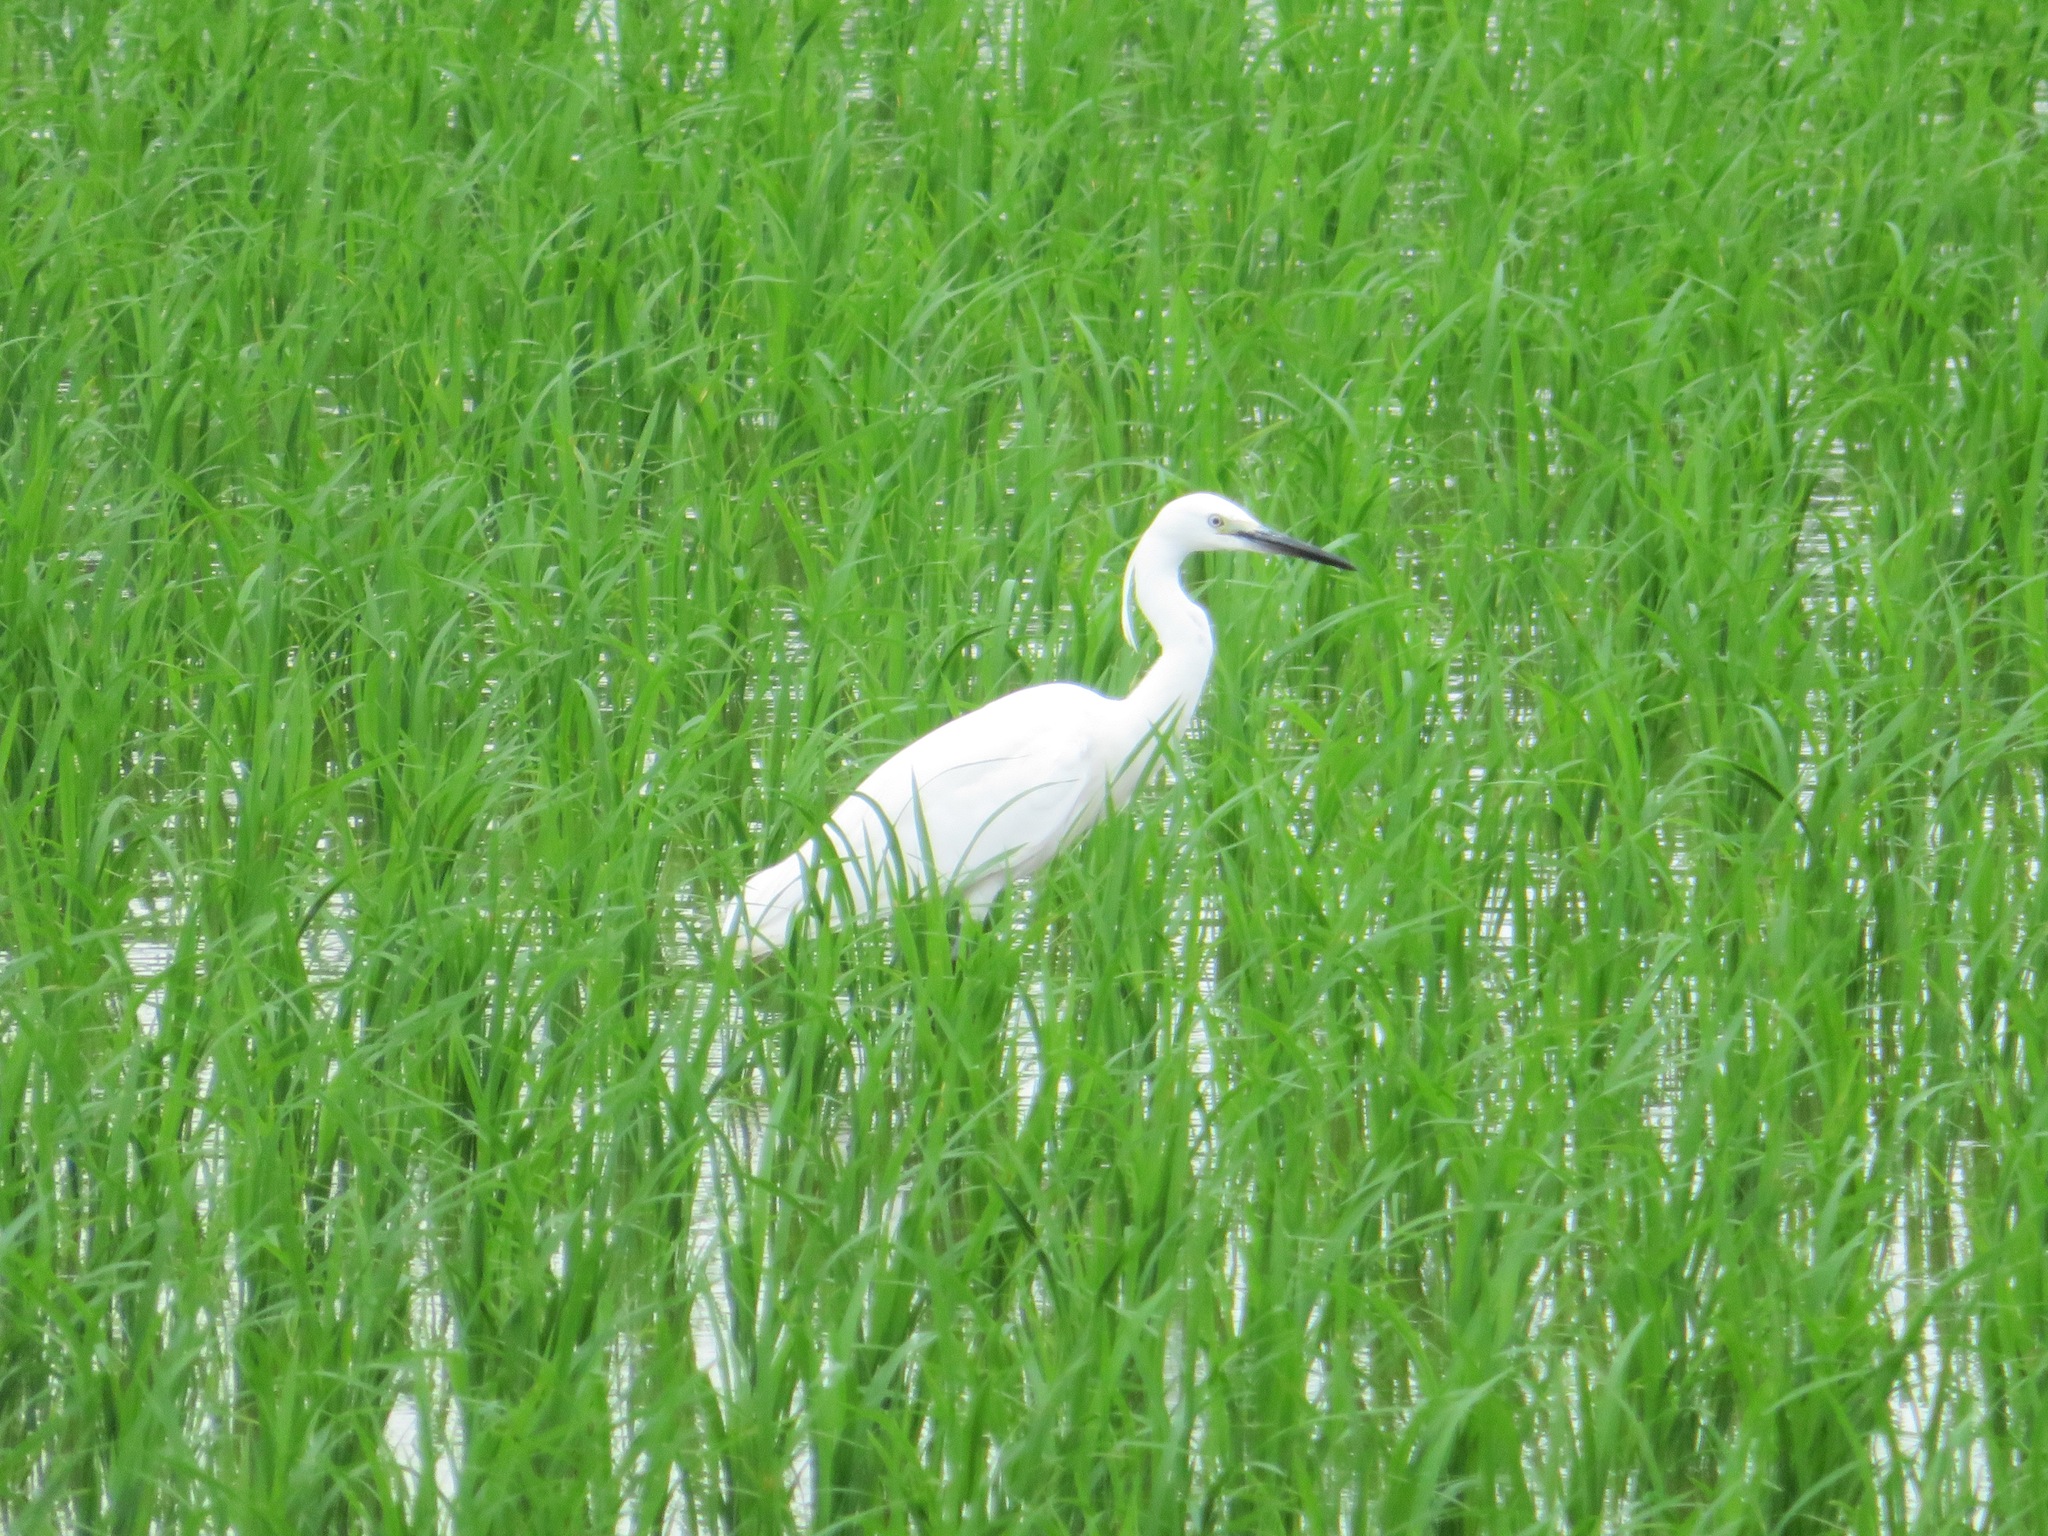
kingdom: Animalia
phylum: Chordata
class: Aves
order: Pelecaniformes
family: Ardeidae
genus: Egretta
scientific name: Egretta garzetta
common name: Little egret
